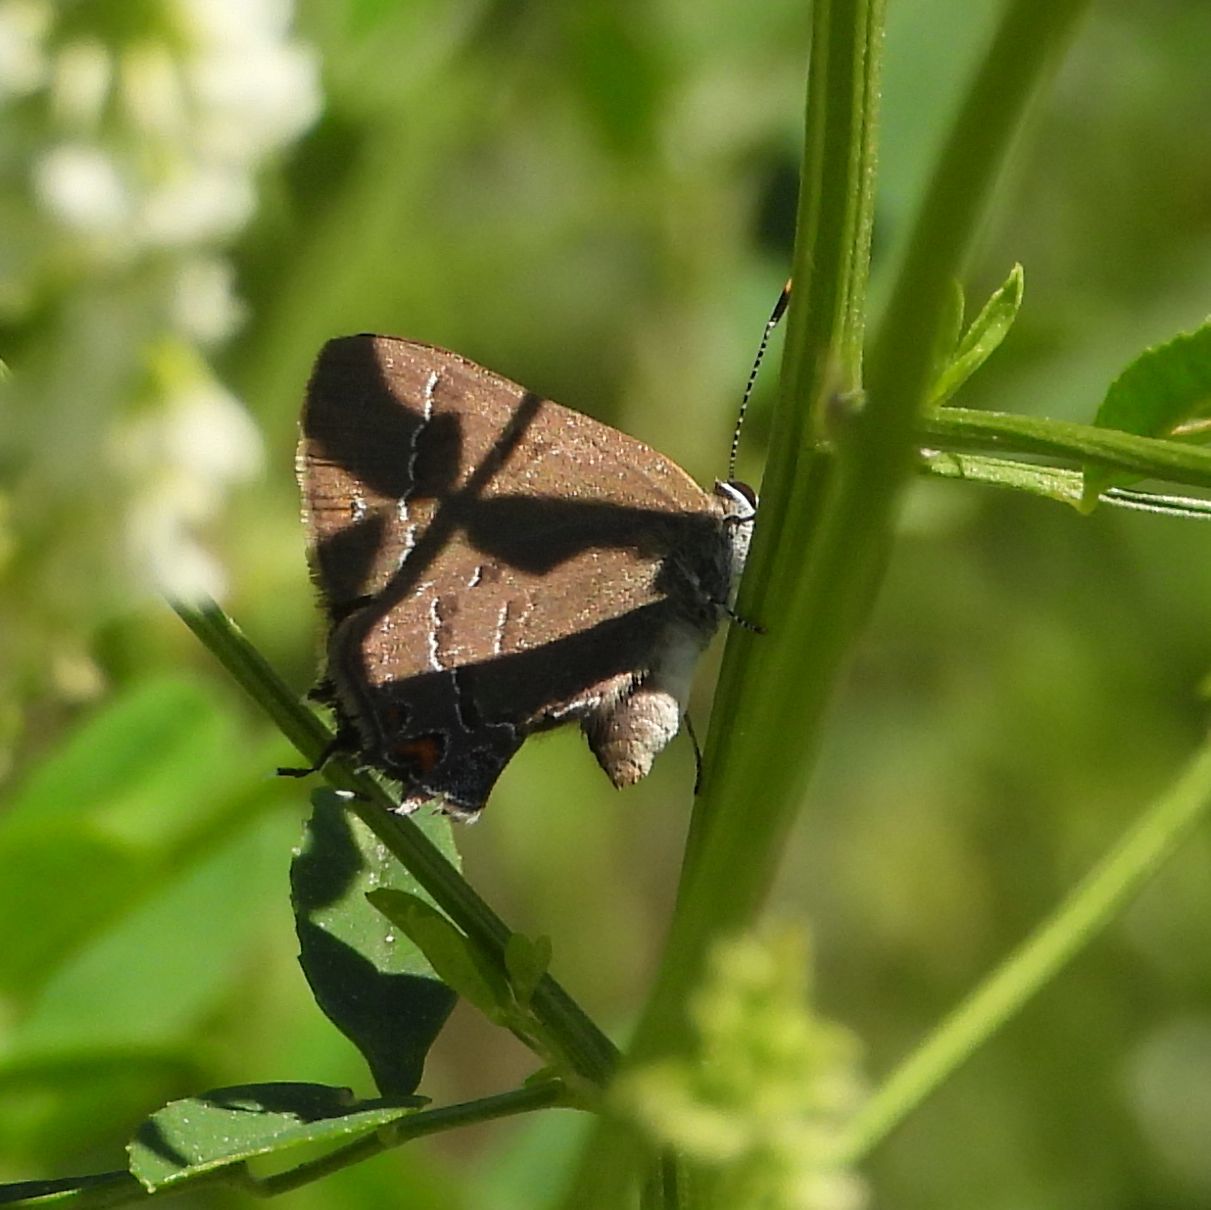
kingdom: Animalia
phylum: Arthropoda
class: Insecta
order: Lepidoptera
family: Lycaenidae
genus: Satyrium
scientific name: Satyrium calanus
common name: Banded hairstreak
